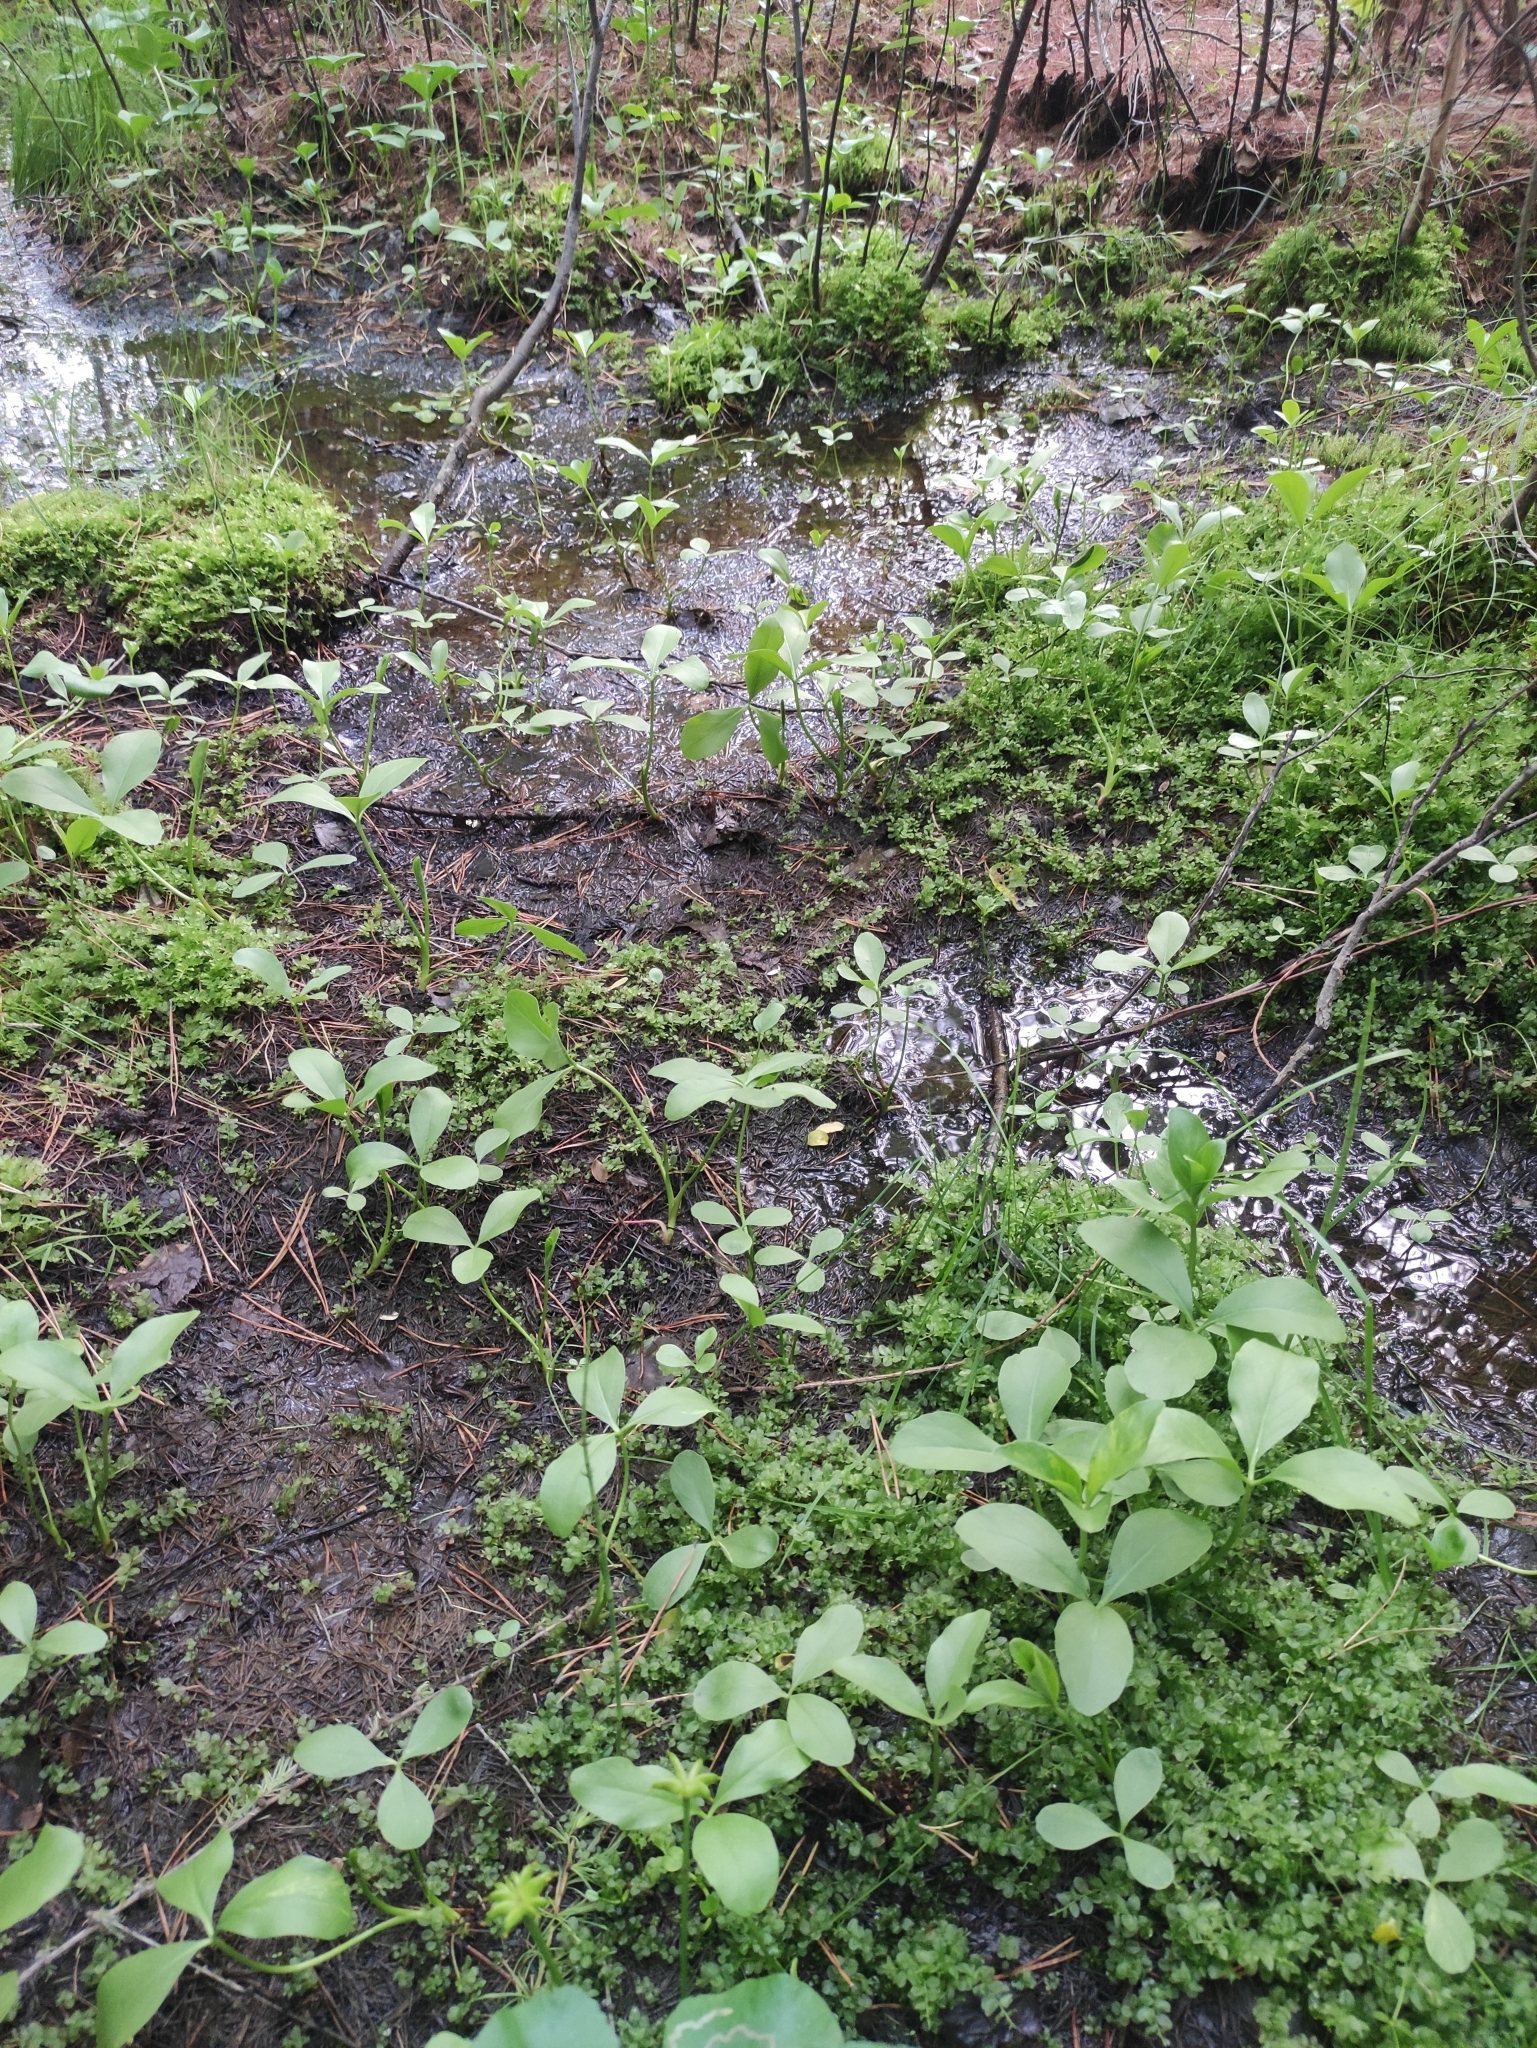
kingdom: Plantae
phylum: Tracheophyta
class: Magnoliopsida
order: Asterales
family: Menyanthaceae
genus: Menyanthes
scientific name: Menyanthes trifoliata
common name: Bogbean
